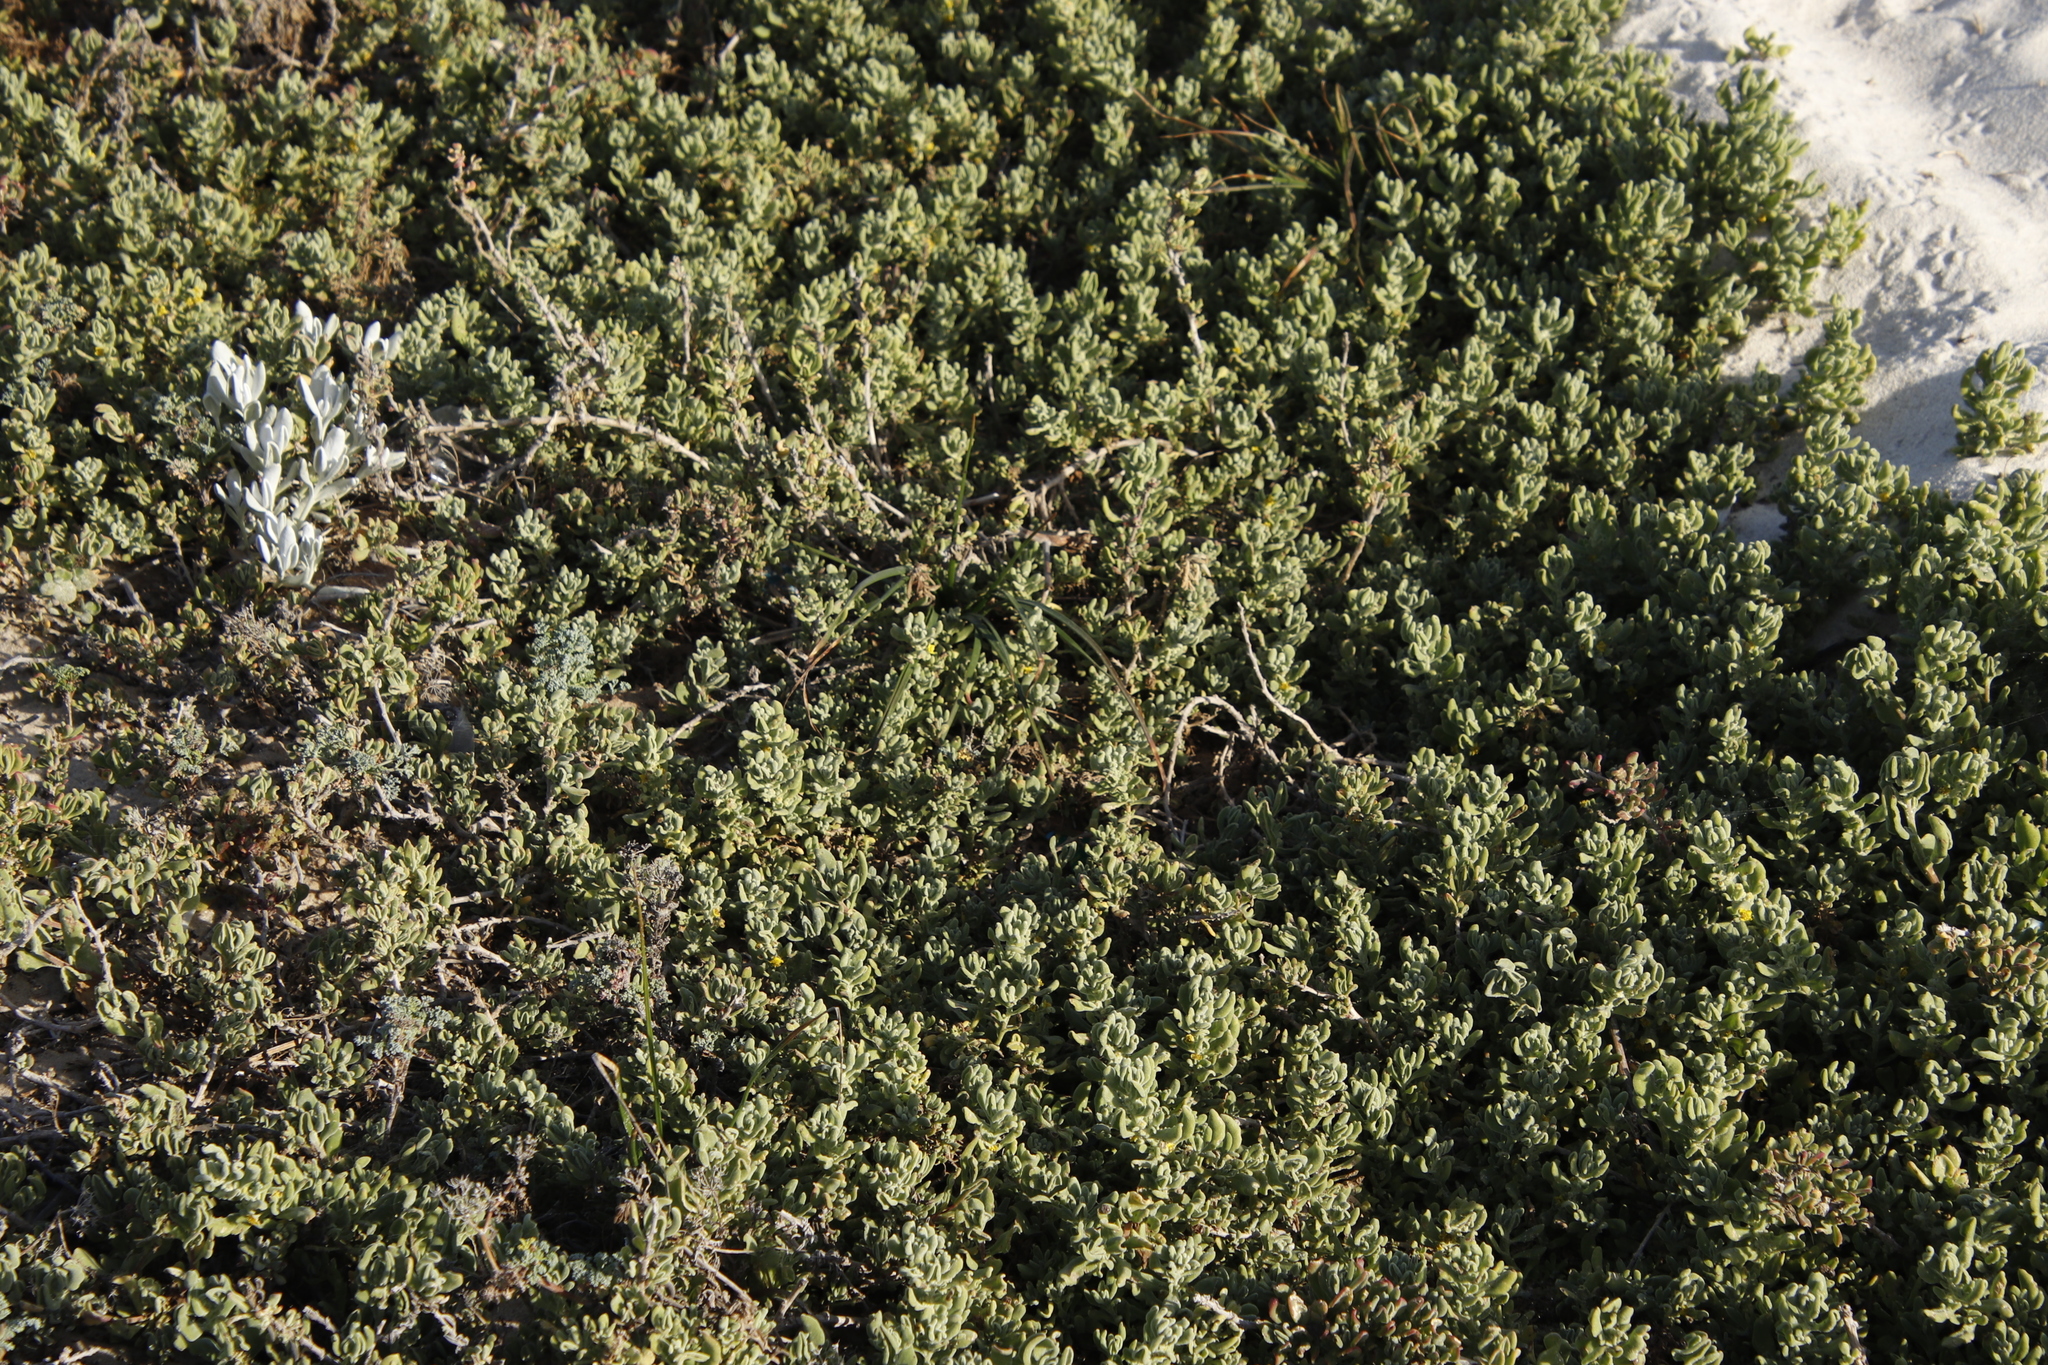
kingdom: Plantae
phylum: Tracheophyta
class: Magnoliopsida
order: Caryophyllales
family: Aizoaceae
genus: Tetragonia
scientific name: Tetragonia decumbens
